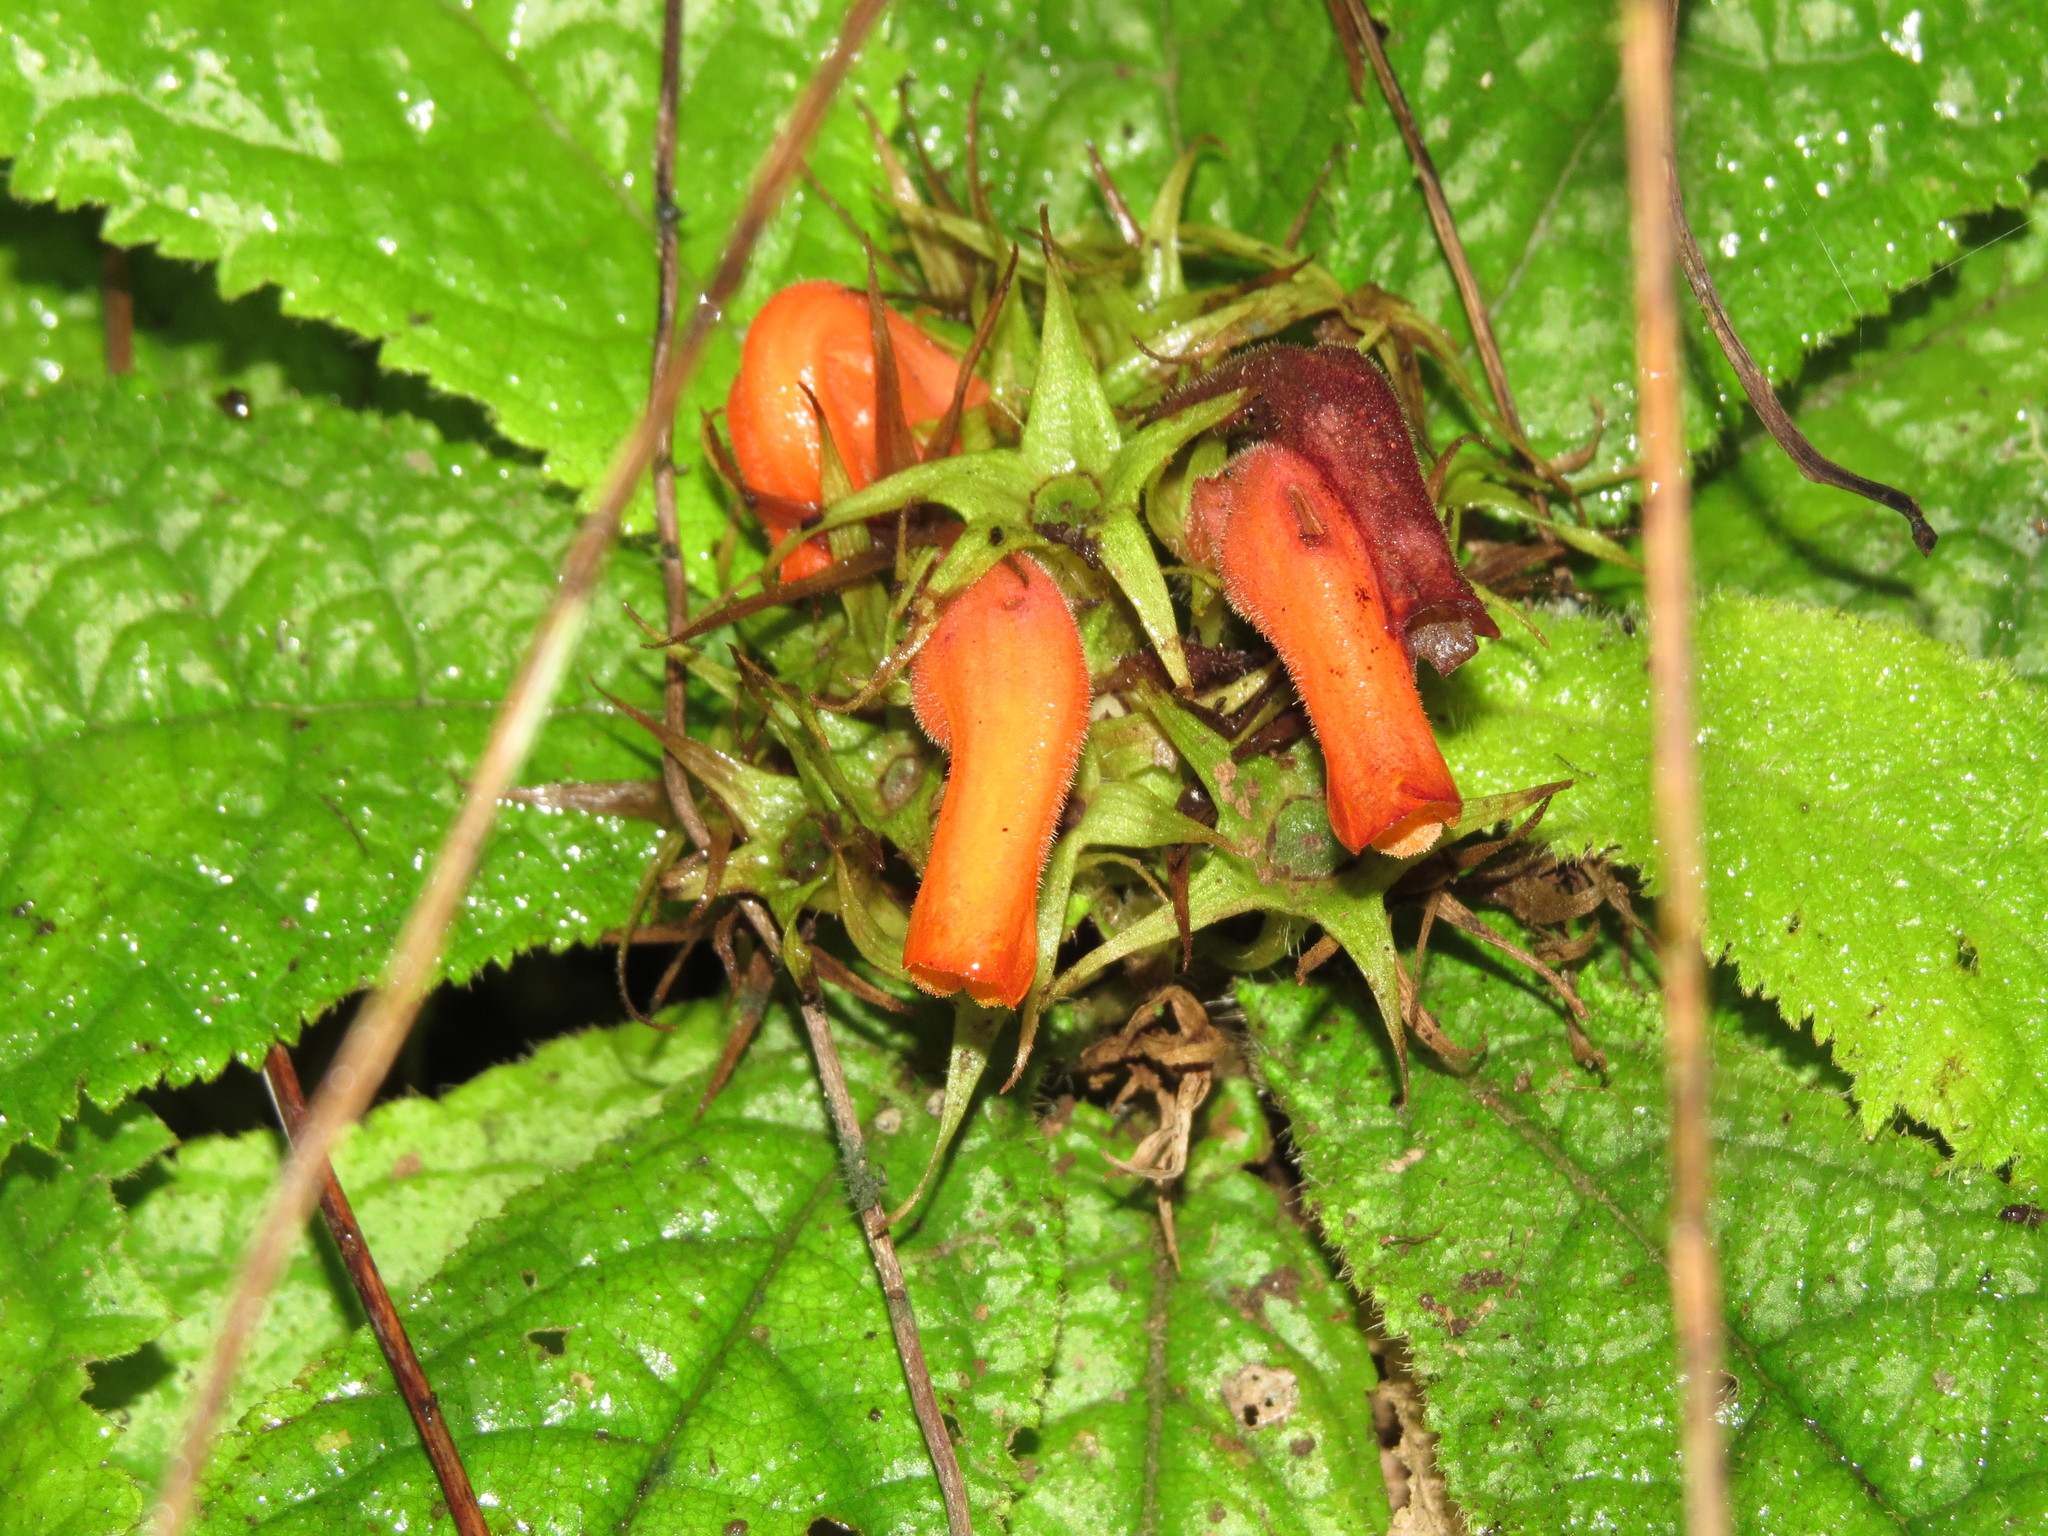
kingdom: Plantae
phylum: Tracheophyta
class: Magnoliopsida
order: Lamiales
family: Gesneriaceae
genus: Gesneria
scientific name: Gesneria acaulis
